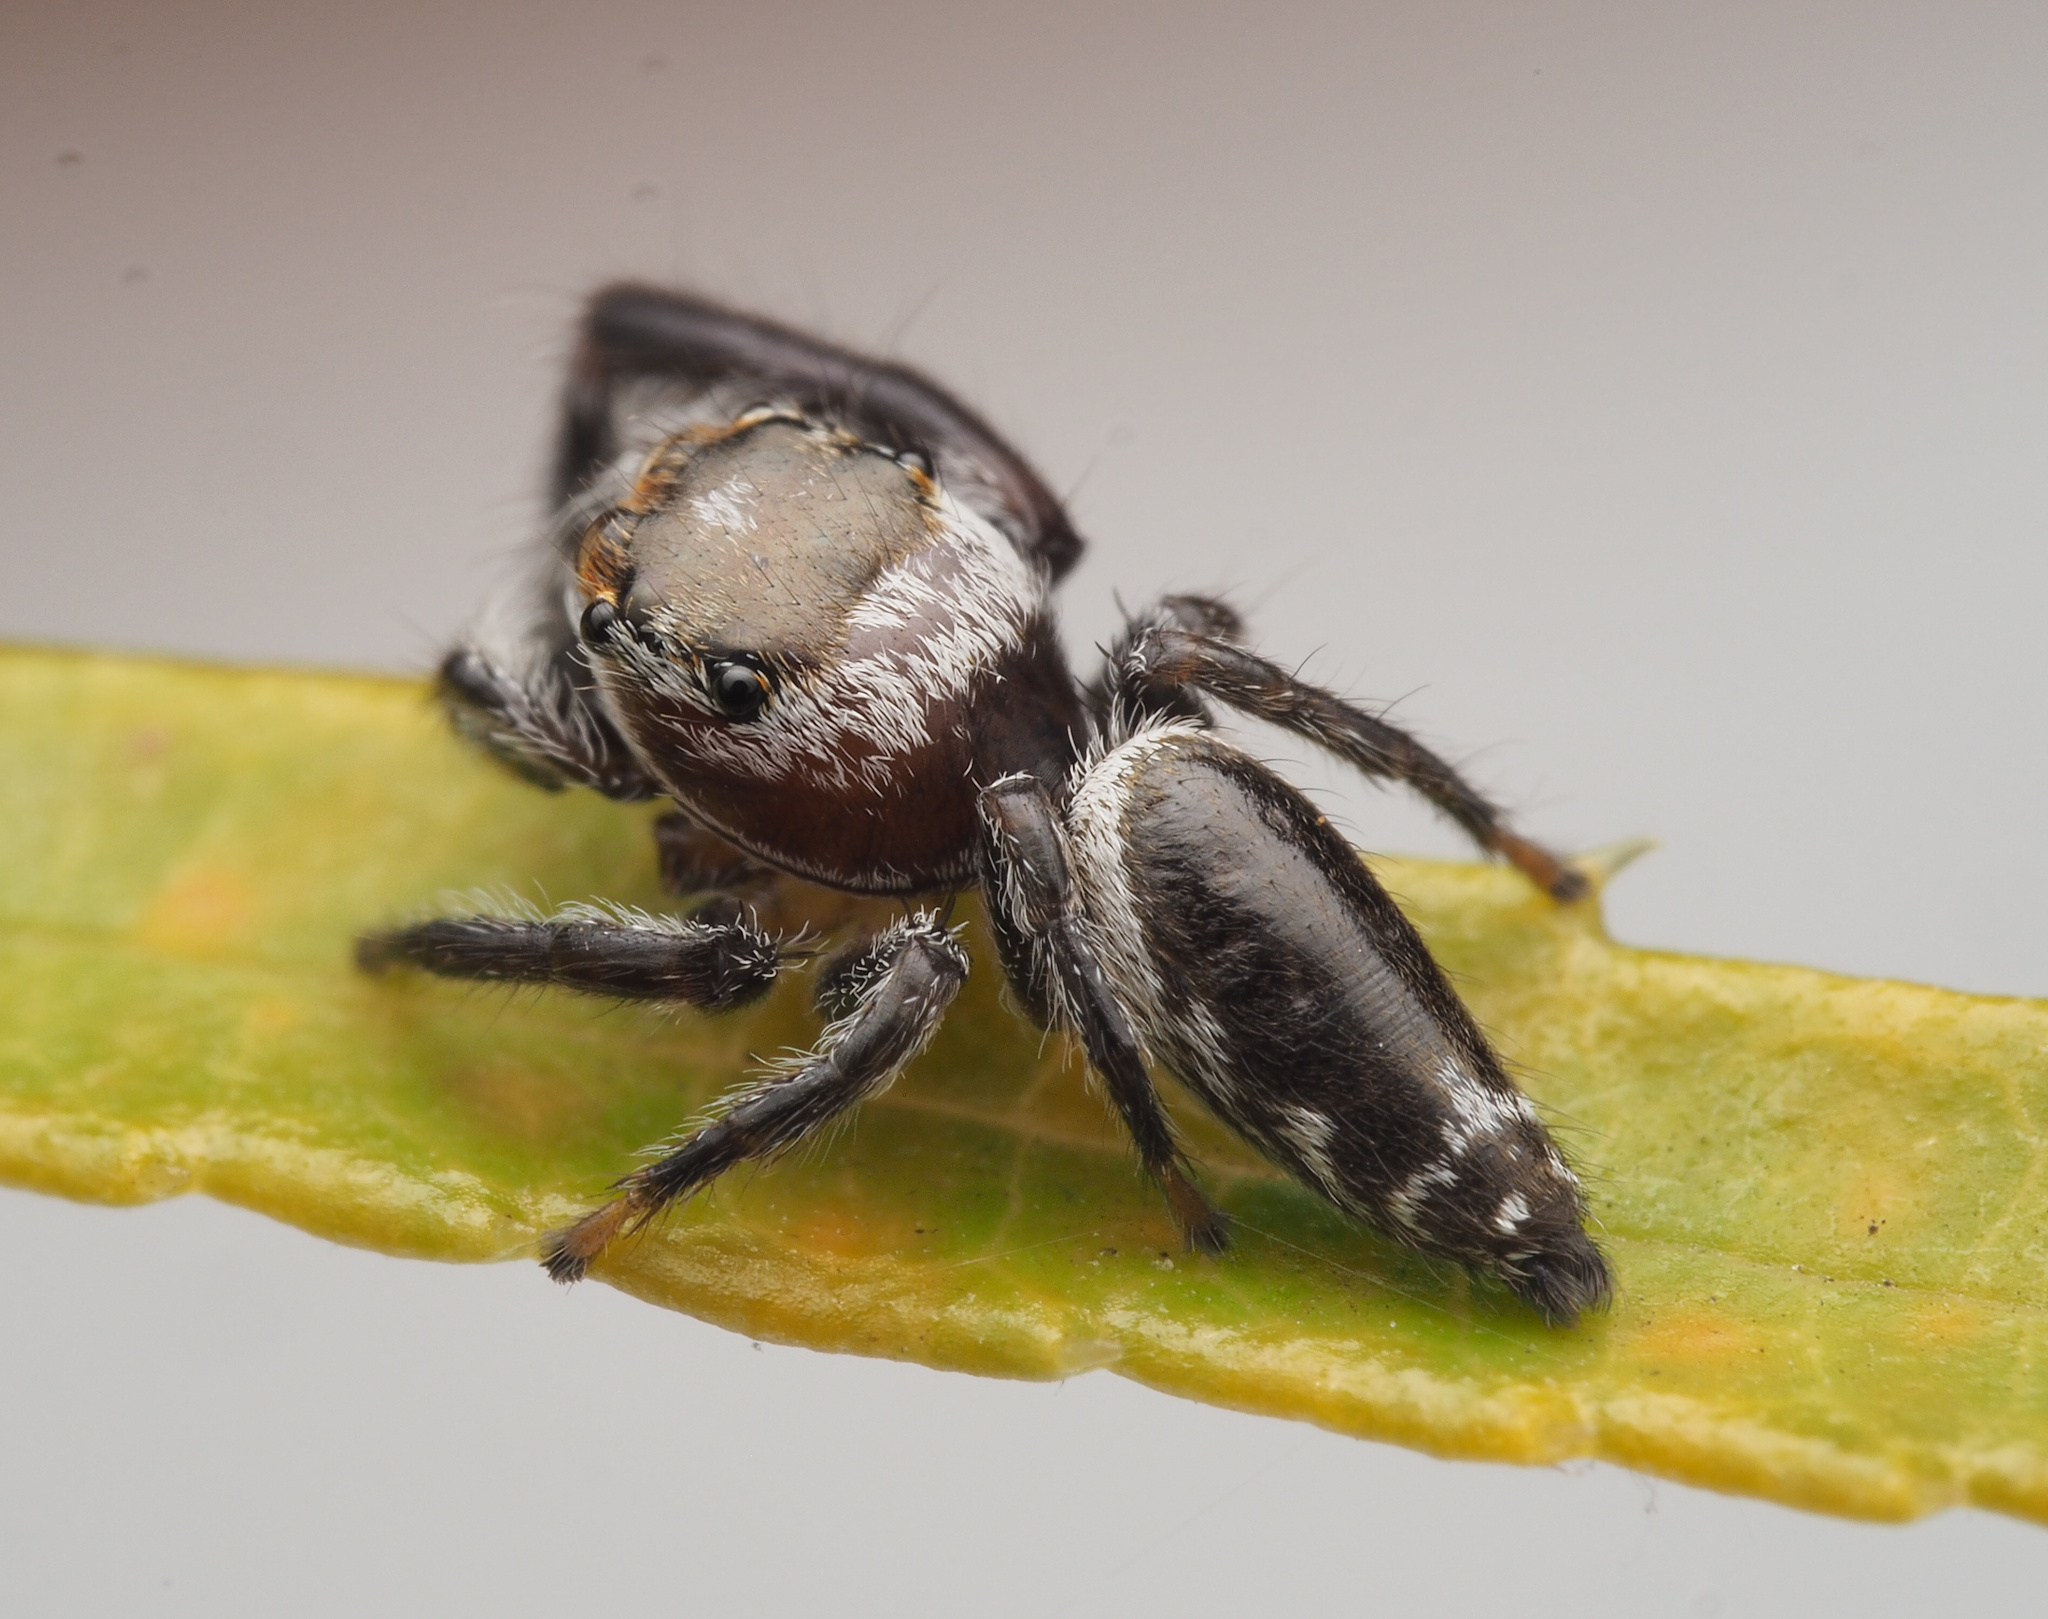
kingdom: Animalia
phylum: Arthropoda
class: Arachnida
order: Araneae
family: Salticidae
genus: Opisthoncus
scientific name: Opisthoncus
